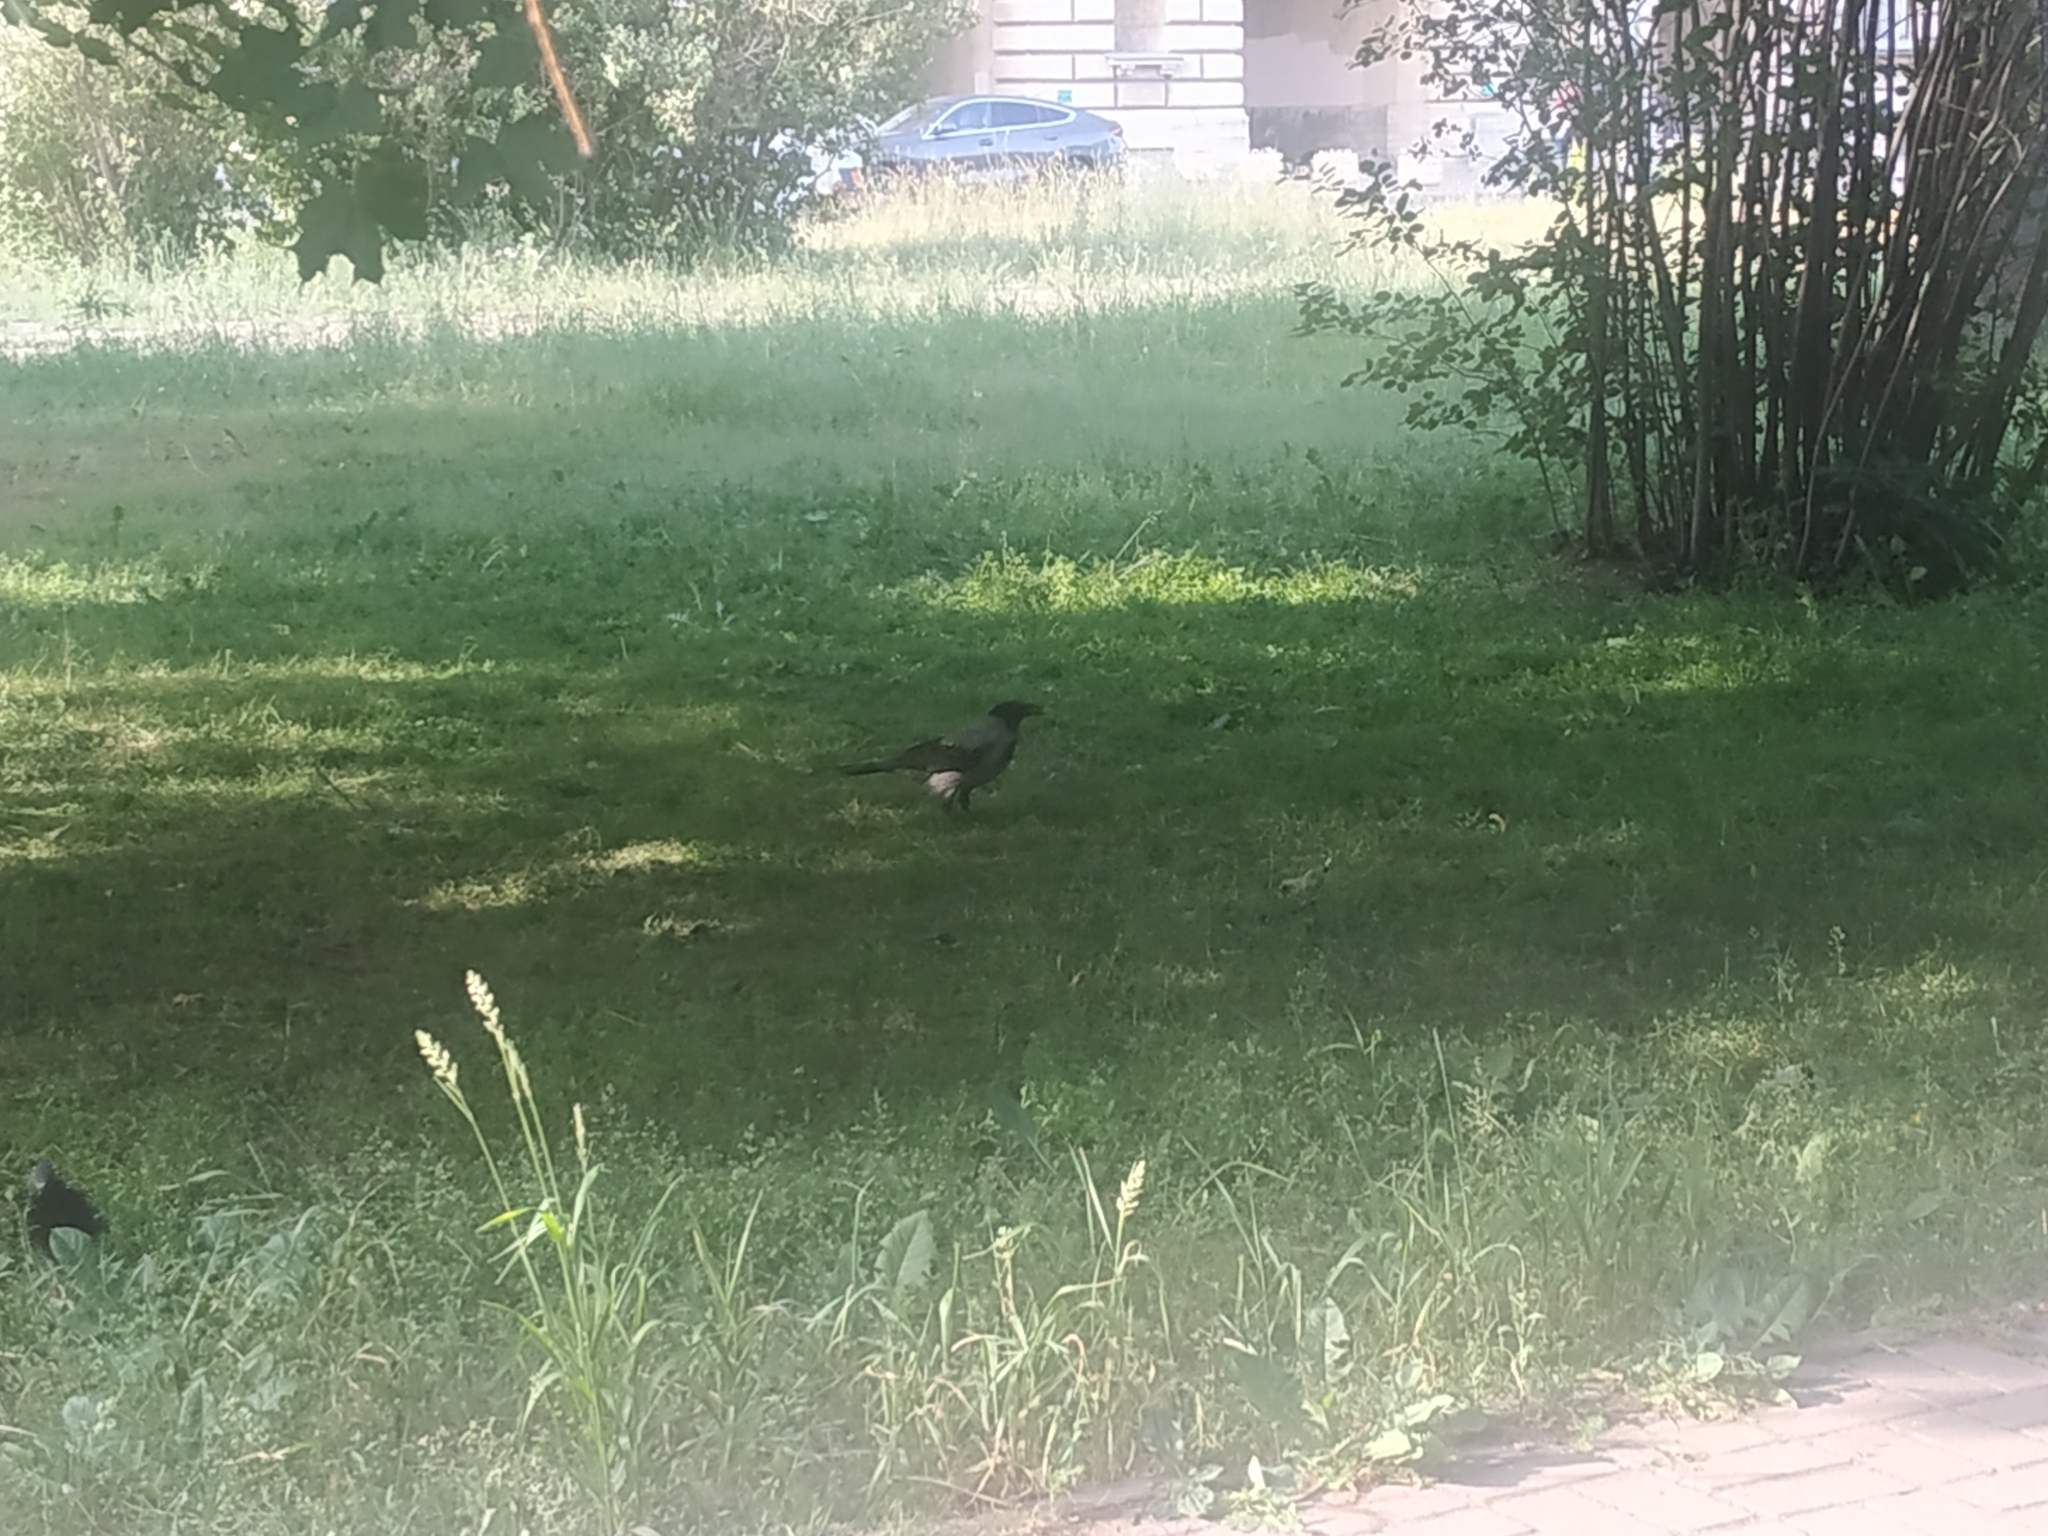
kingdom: Animalia
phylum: Chordata
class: Aves
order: Passeriformes
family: Corvidae
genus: Corvus
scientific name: Corvus cornix
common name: Hooded crow
